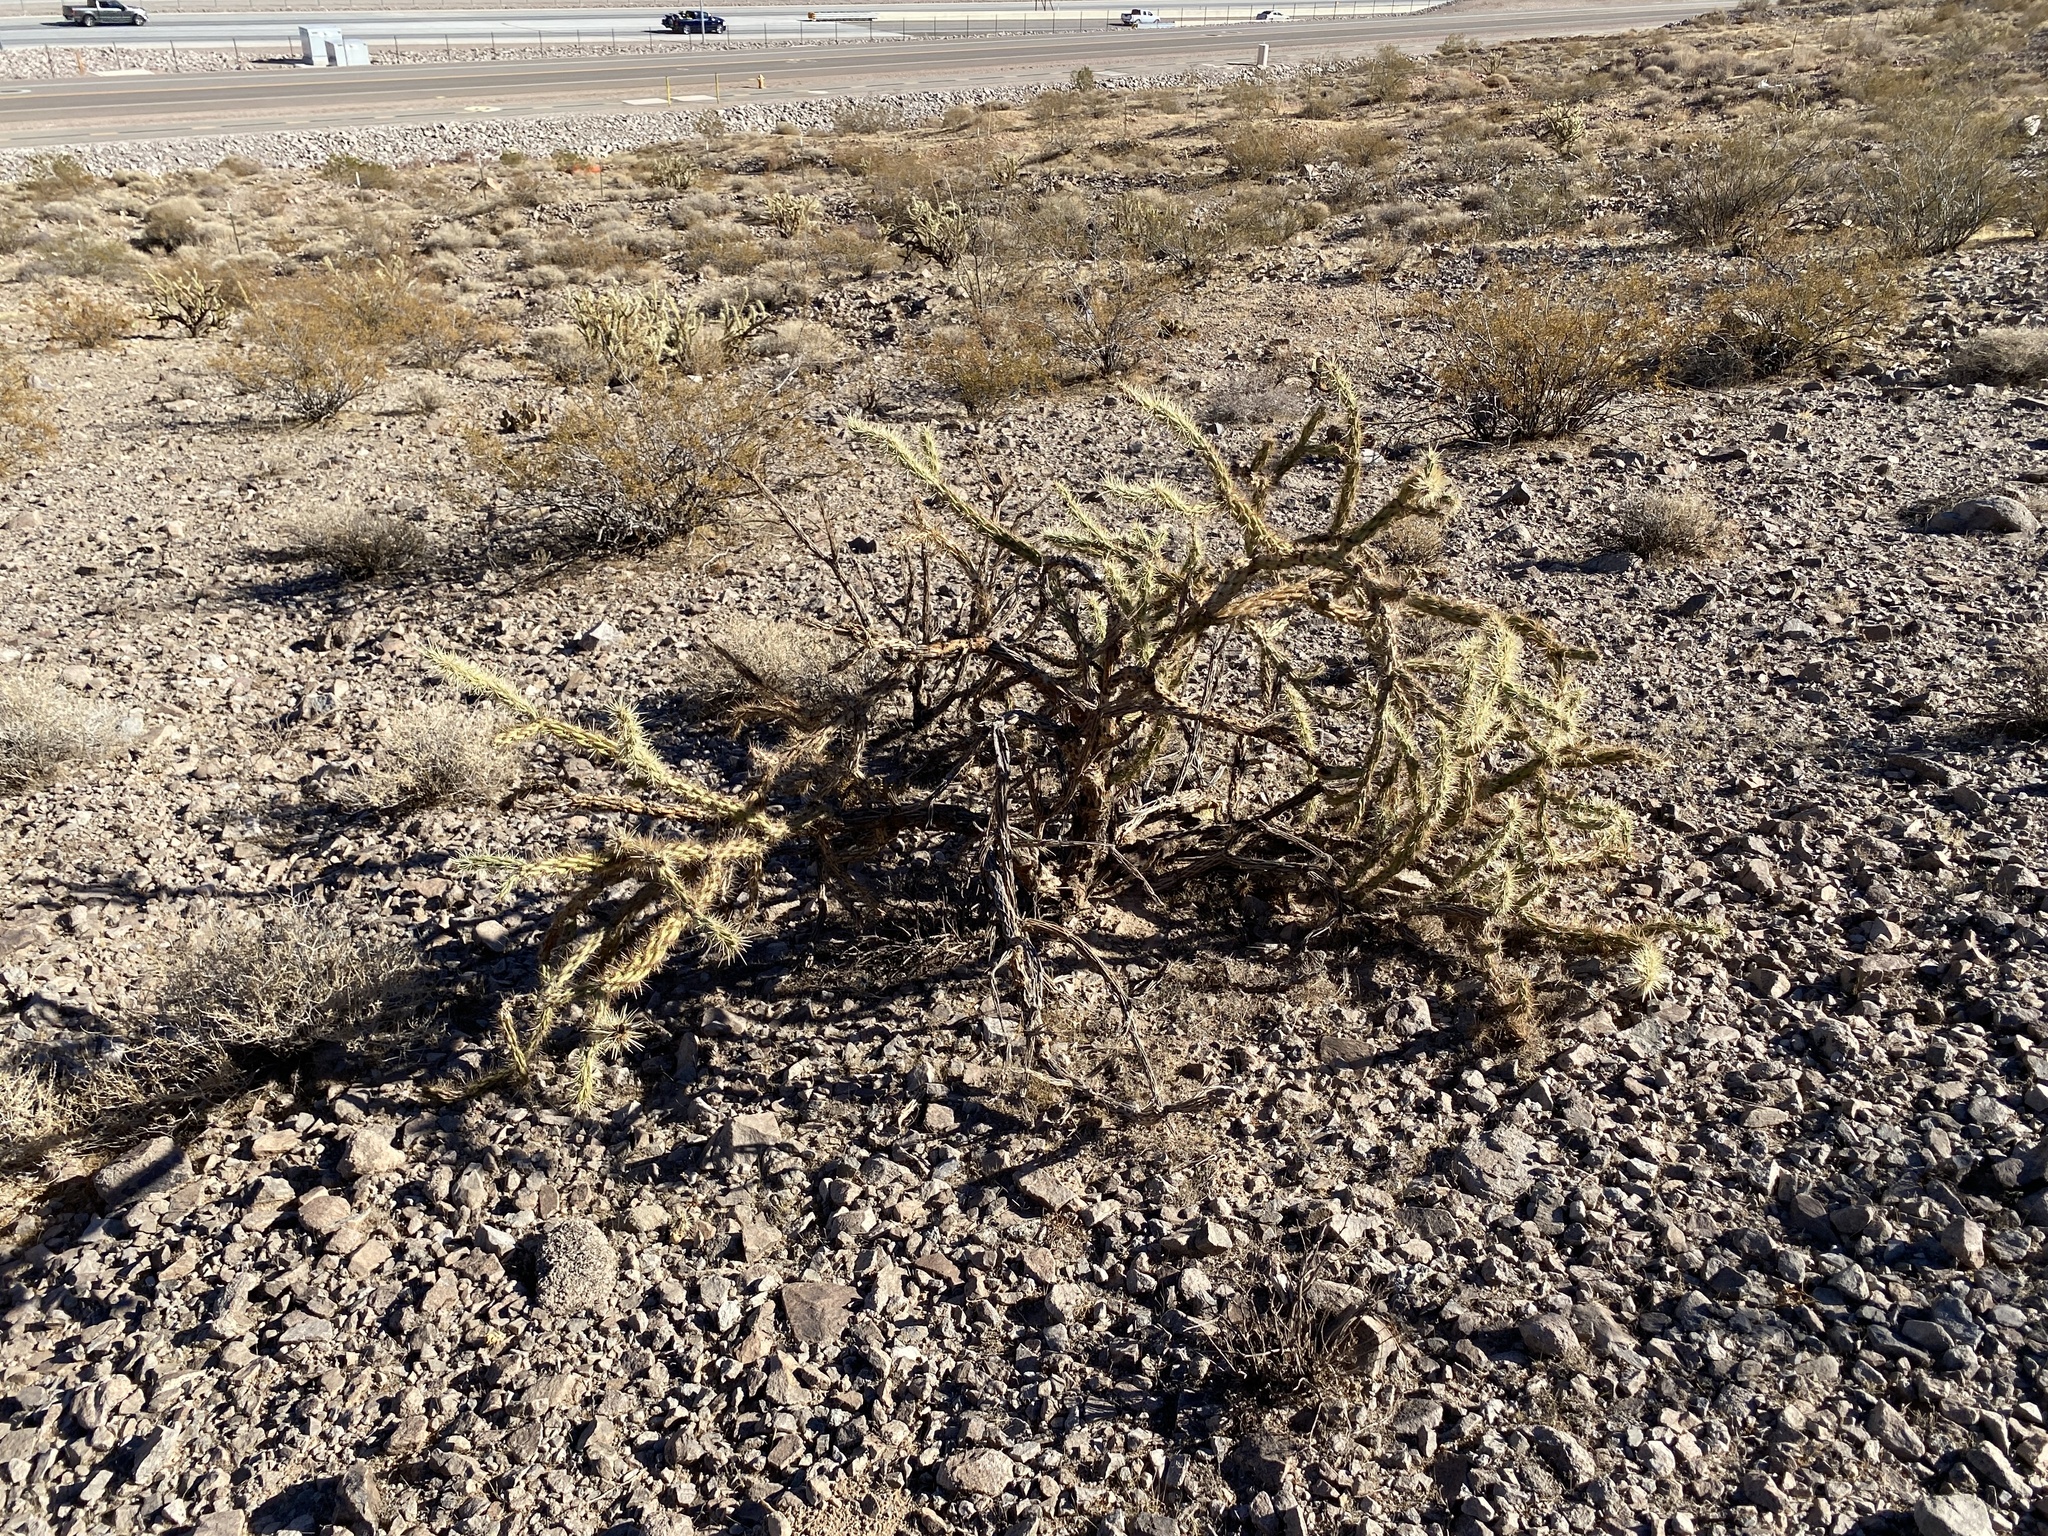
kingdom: Plantae
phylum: Tracheophyta
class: Magnoliopsida
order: Caryophyllales
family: Cactaceae
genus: Cylindropuntia
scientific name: Cylindropuntia acanthocarpa
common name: Buckhorn cholla
